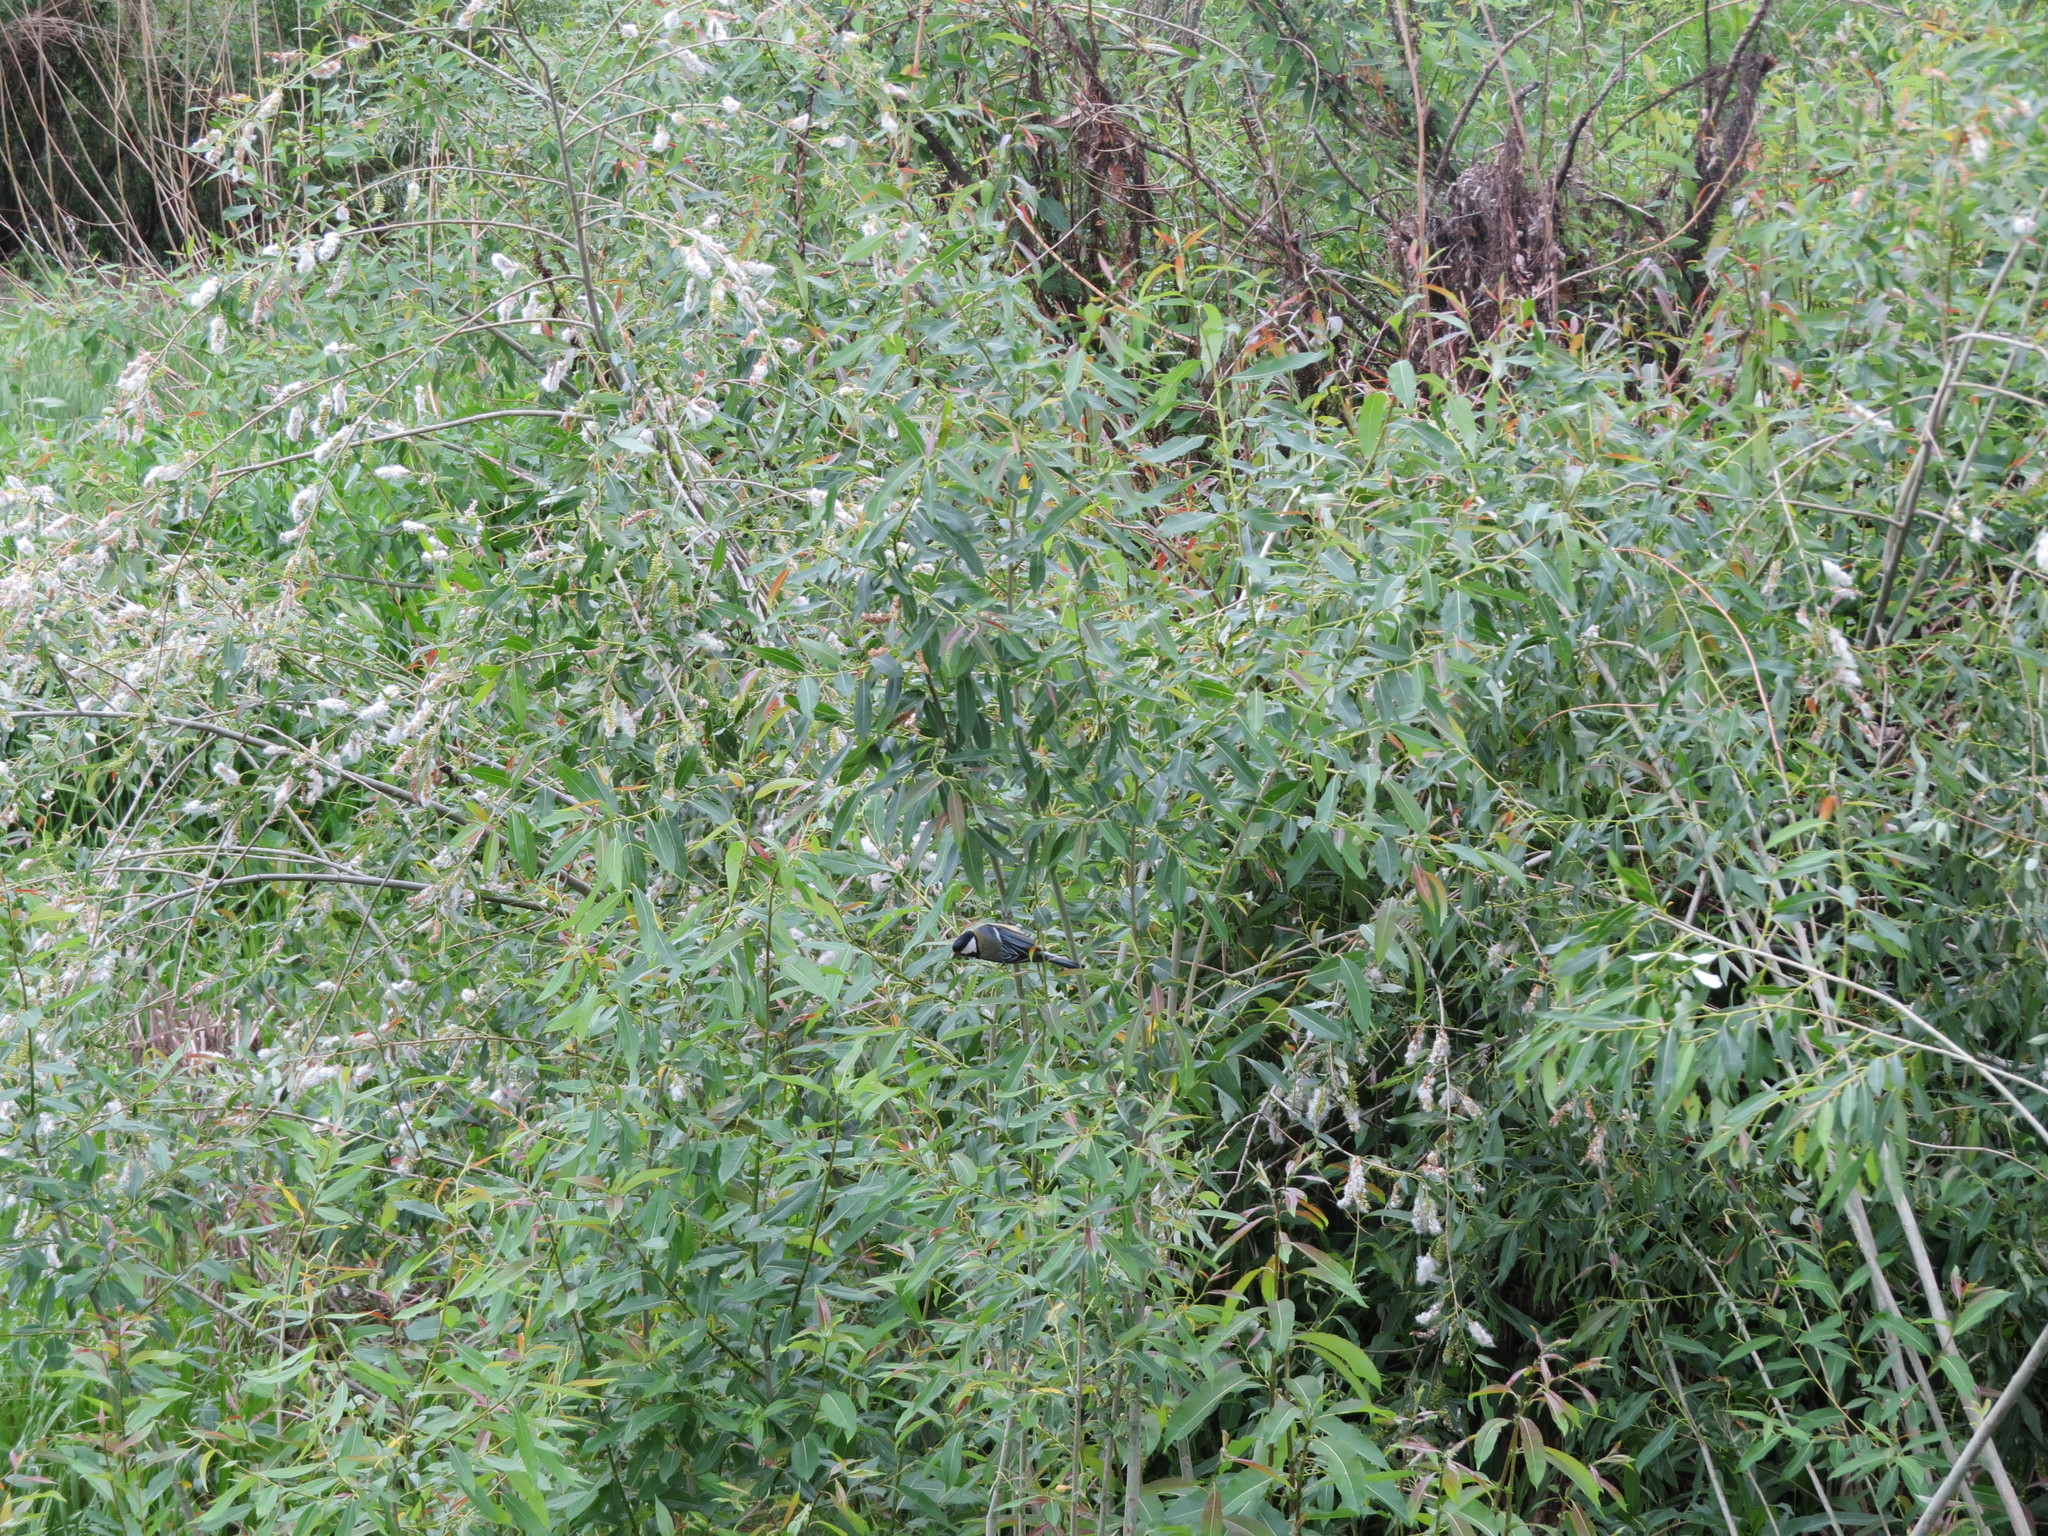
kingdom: Animalia
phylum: Chordata
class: Aves
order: Passeriformes
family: Paridae
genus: Parus
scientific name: Parus major
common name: Great tit
